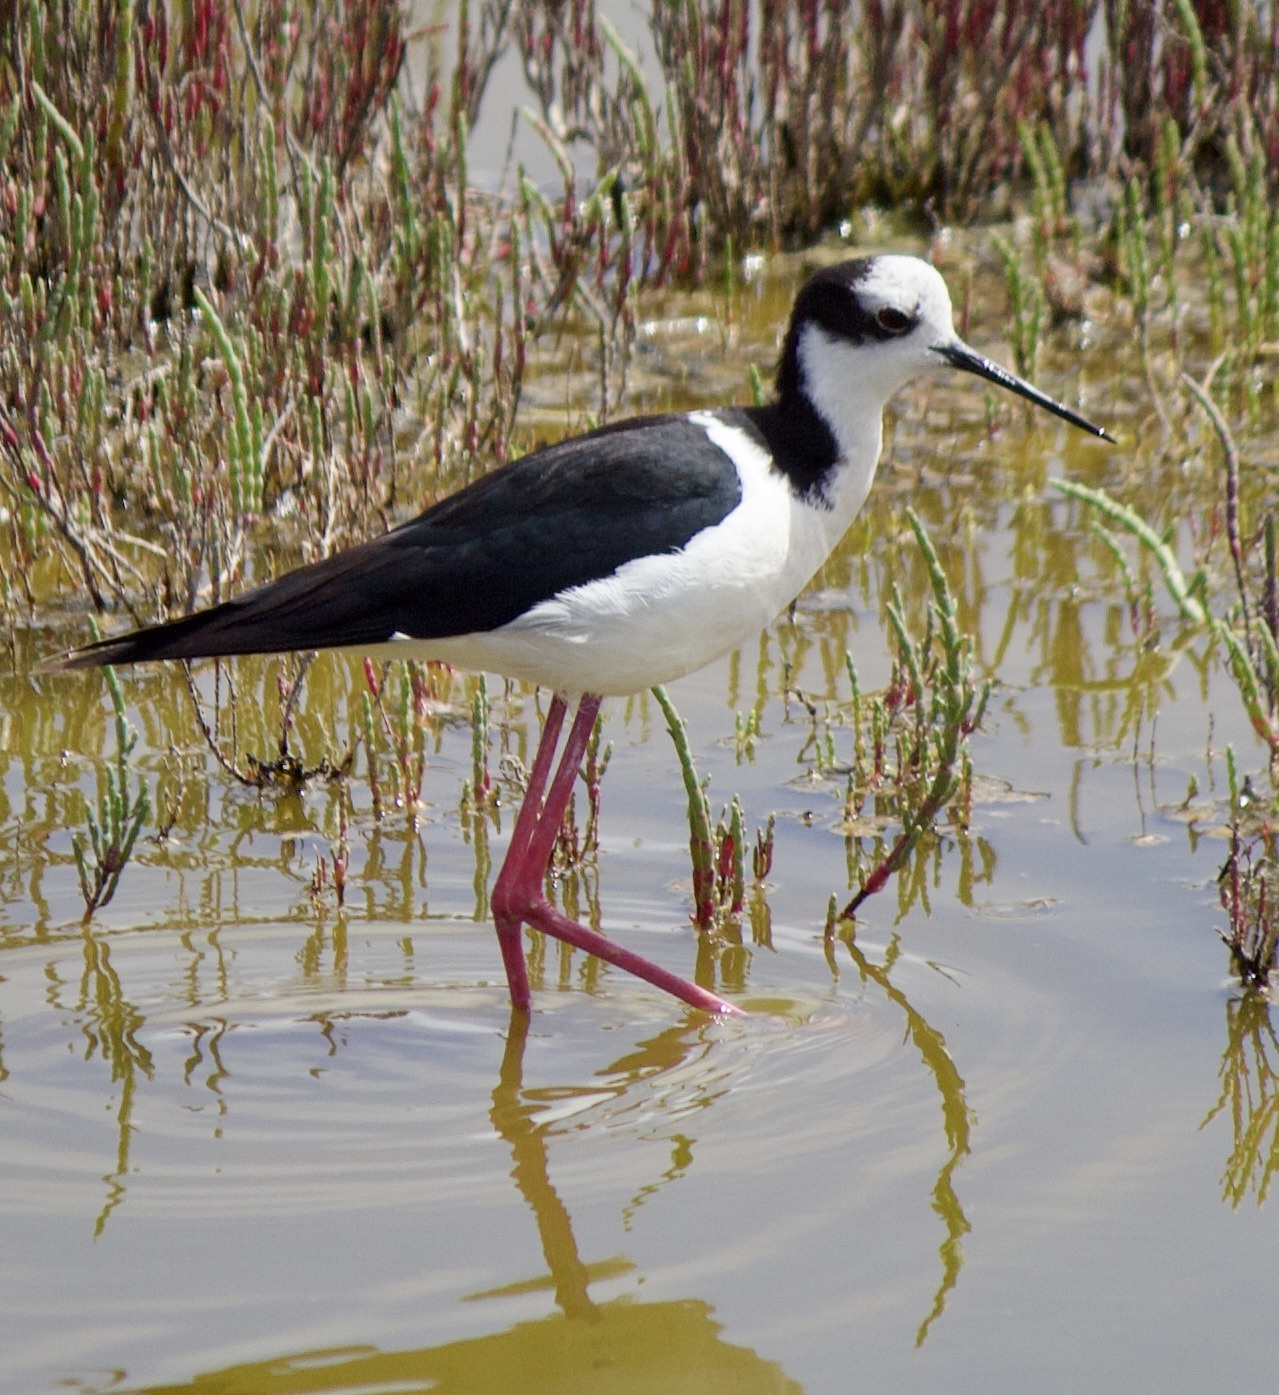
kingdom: Animalia
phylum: Chordata
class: Aves
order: Charadriiformes
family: Recurvirostridae
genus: Himantopus
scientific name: Himantopus mexicanus
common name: Black-necked stilt
